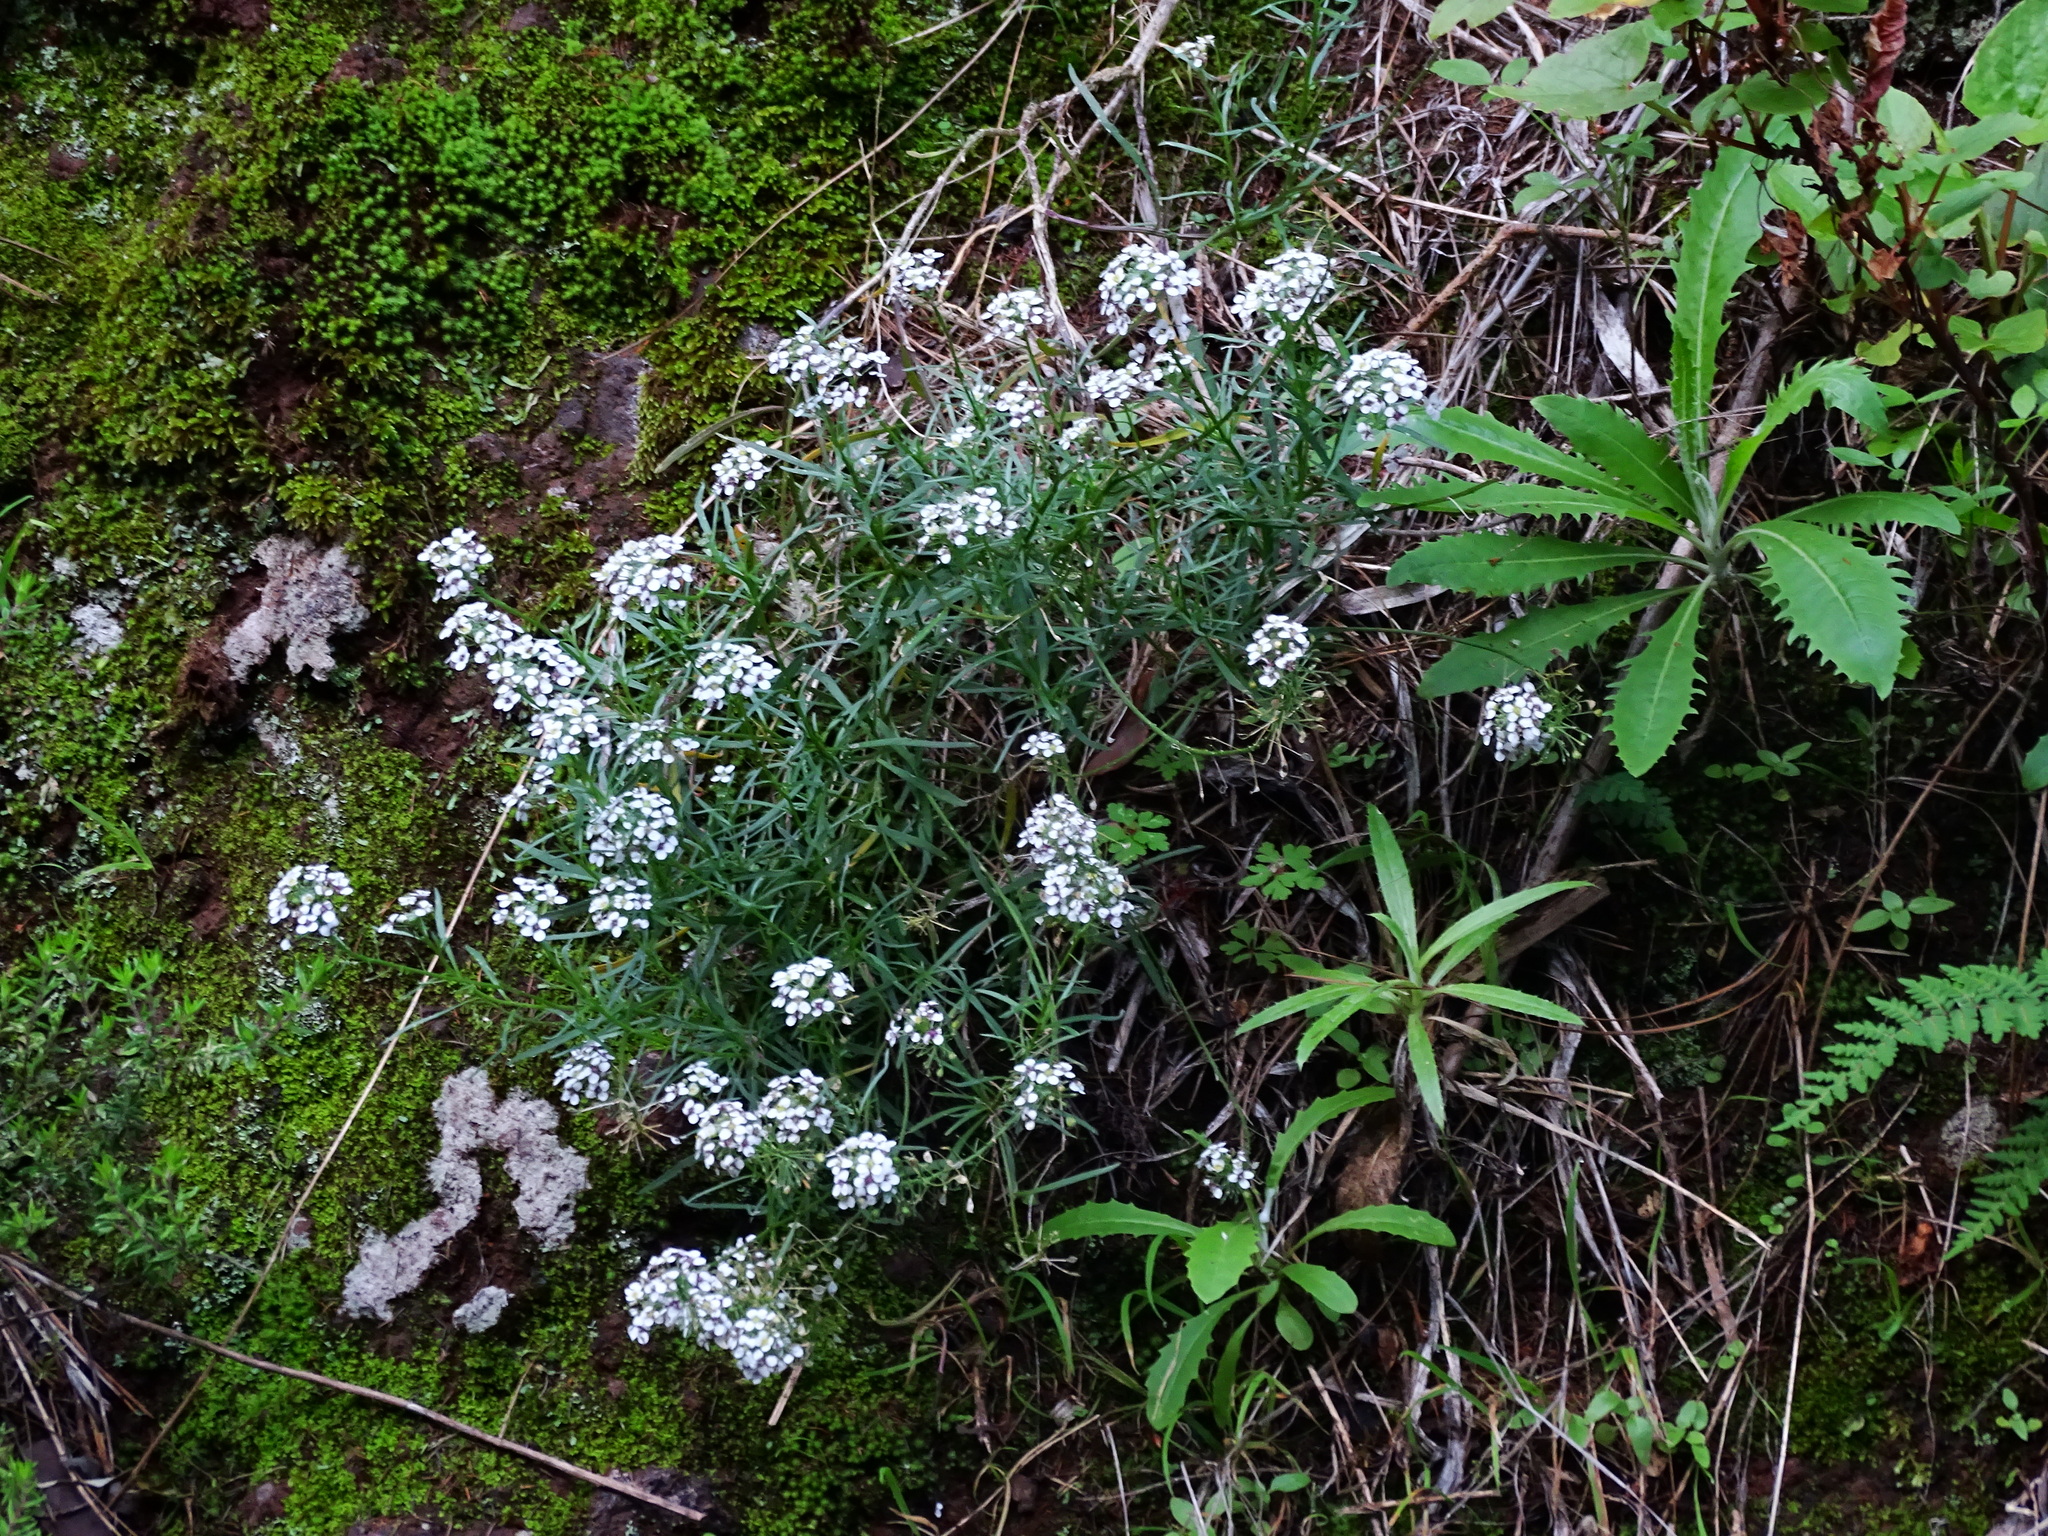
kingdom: Plantae
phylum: Tracheophyta
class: Magnoliopsida
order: Brassicales
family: Brassicaceae
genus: Lobularia
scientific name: Lobularia canariensis
